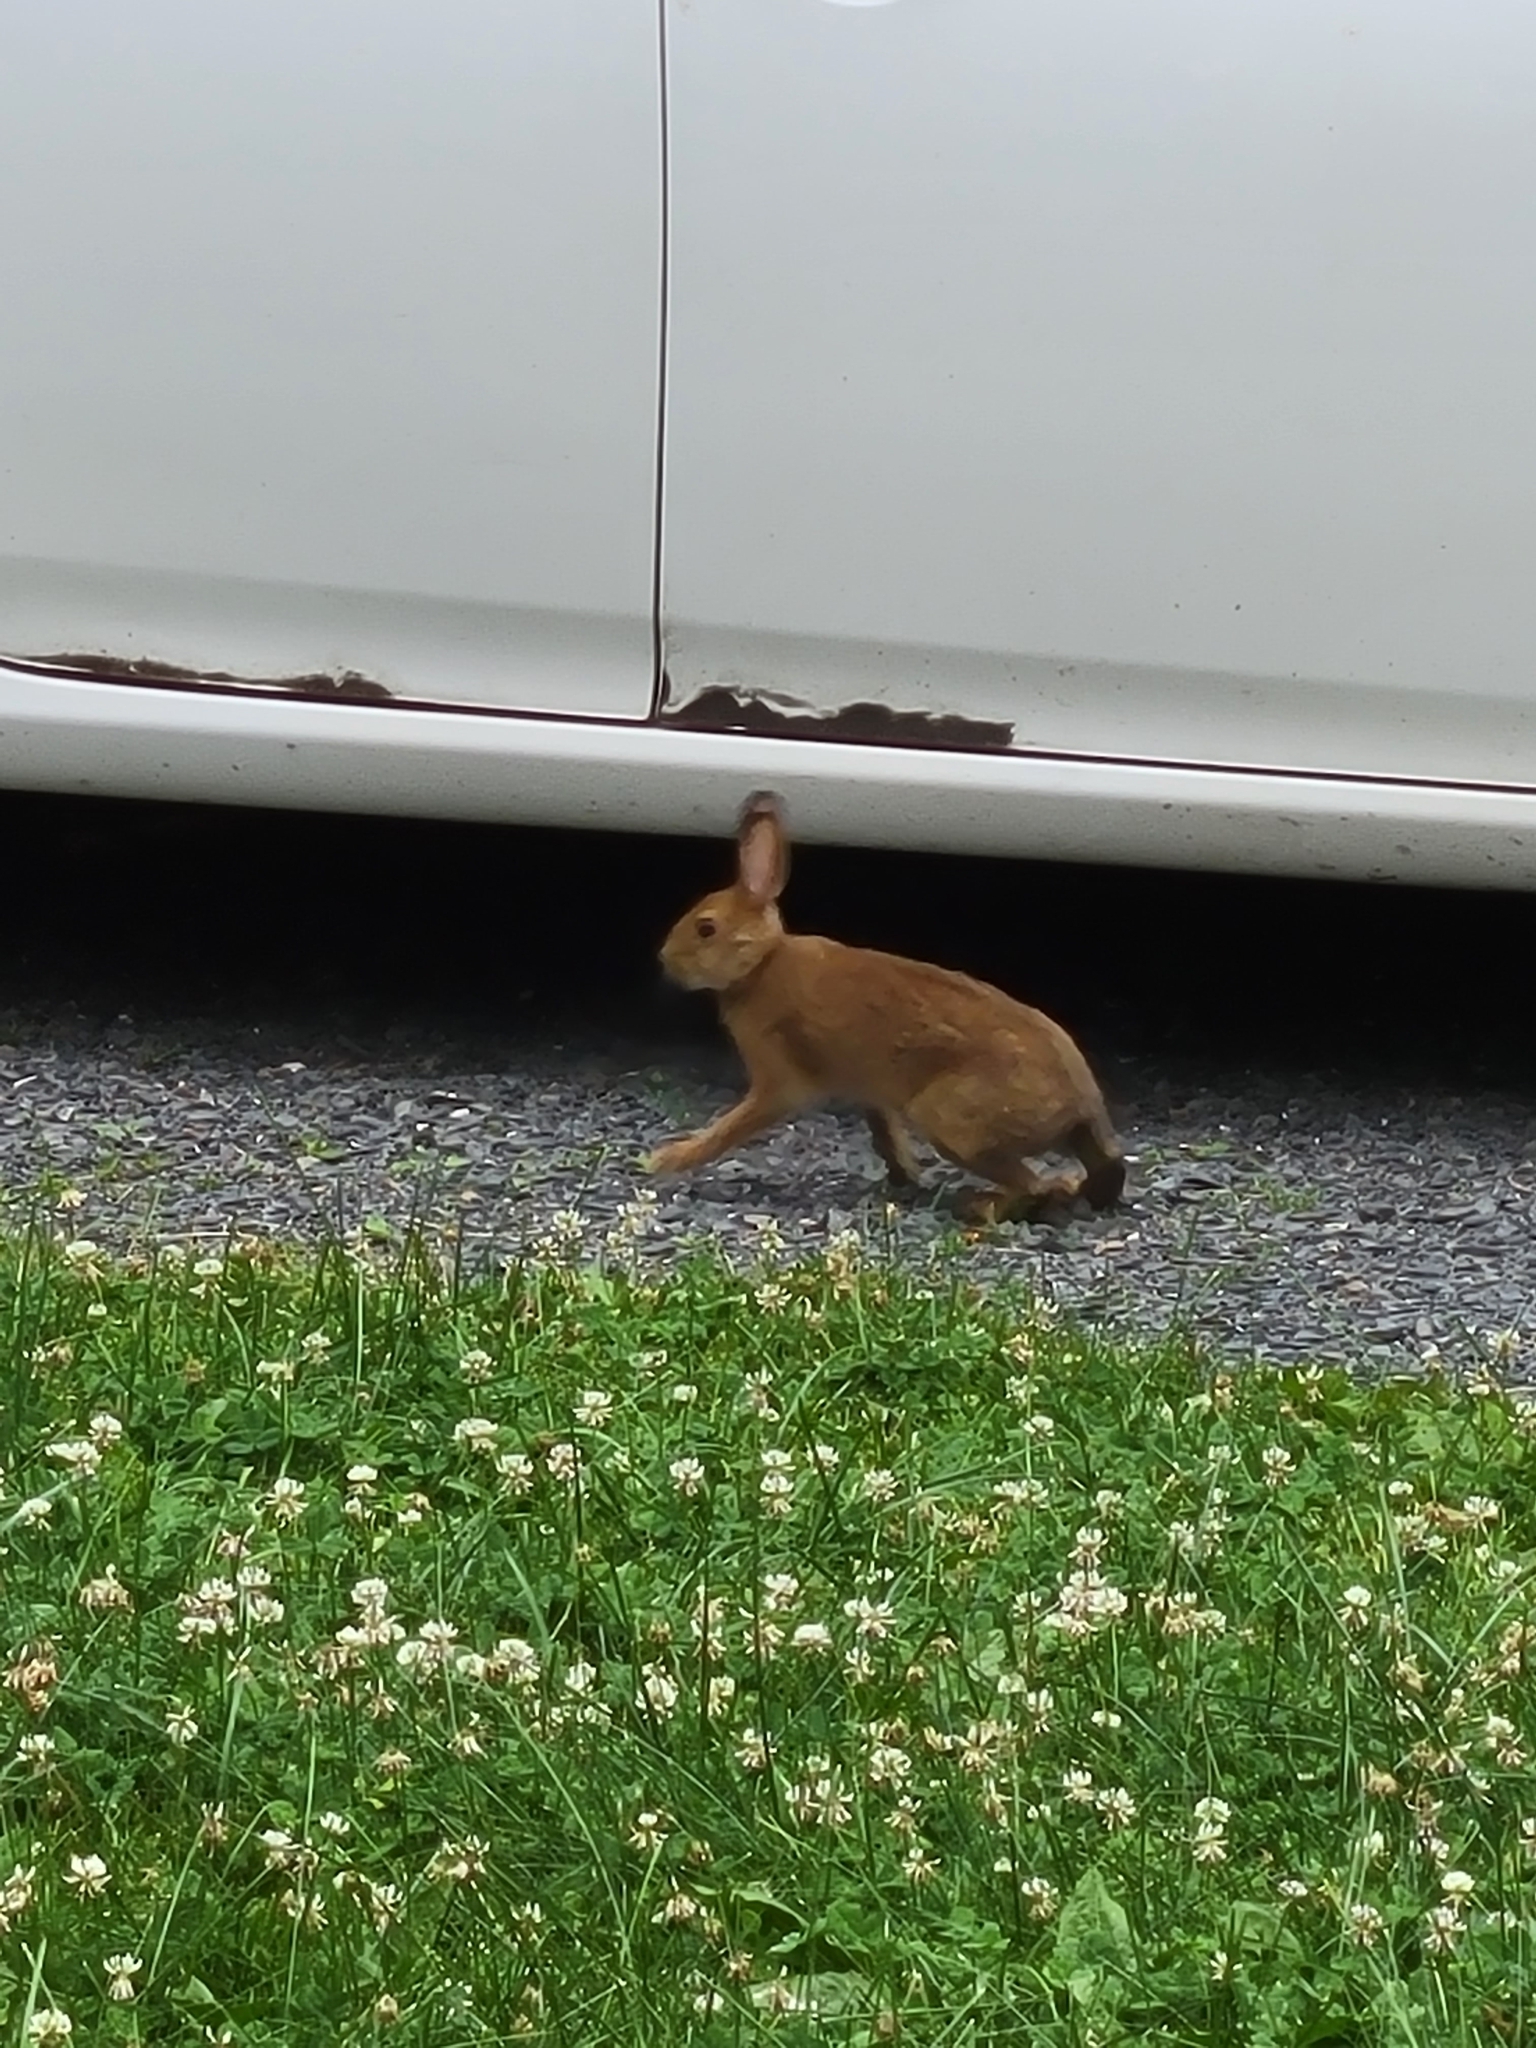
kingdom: Animalia
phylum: Chordata
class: Mammalia
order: Lagomorpha
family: Leporidae
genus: Lepus
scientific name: Lepus americanus
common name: Snowshoe hare
